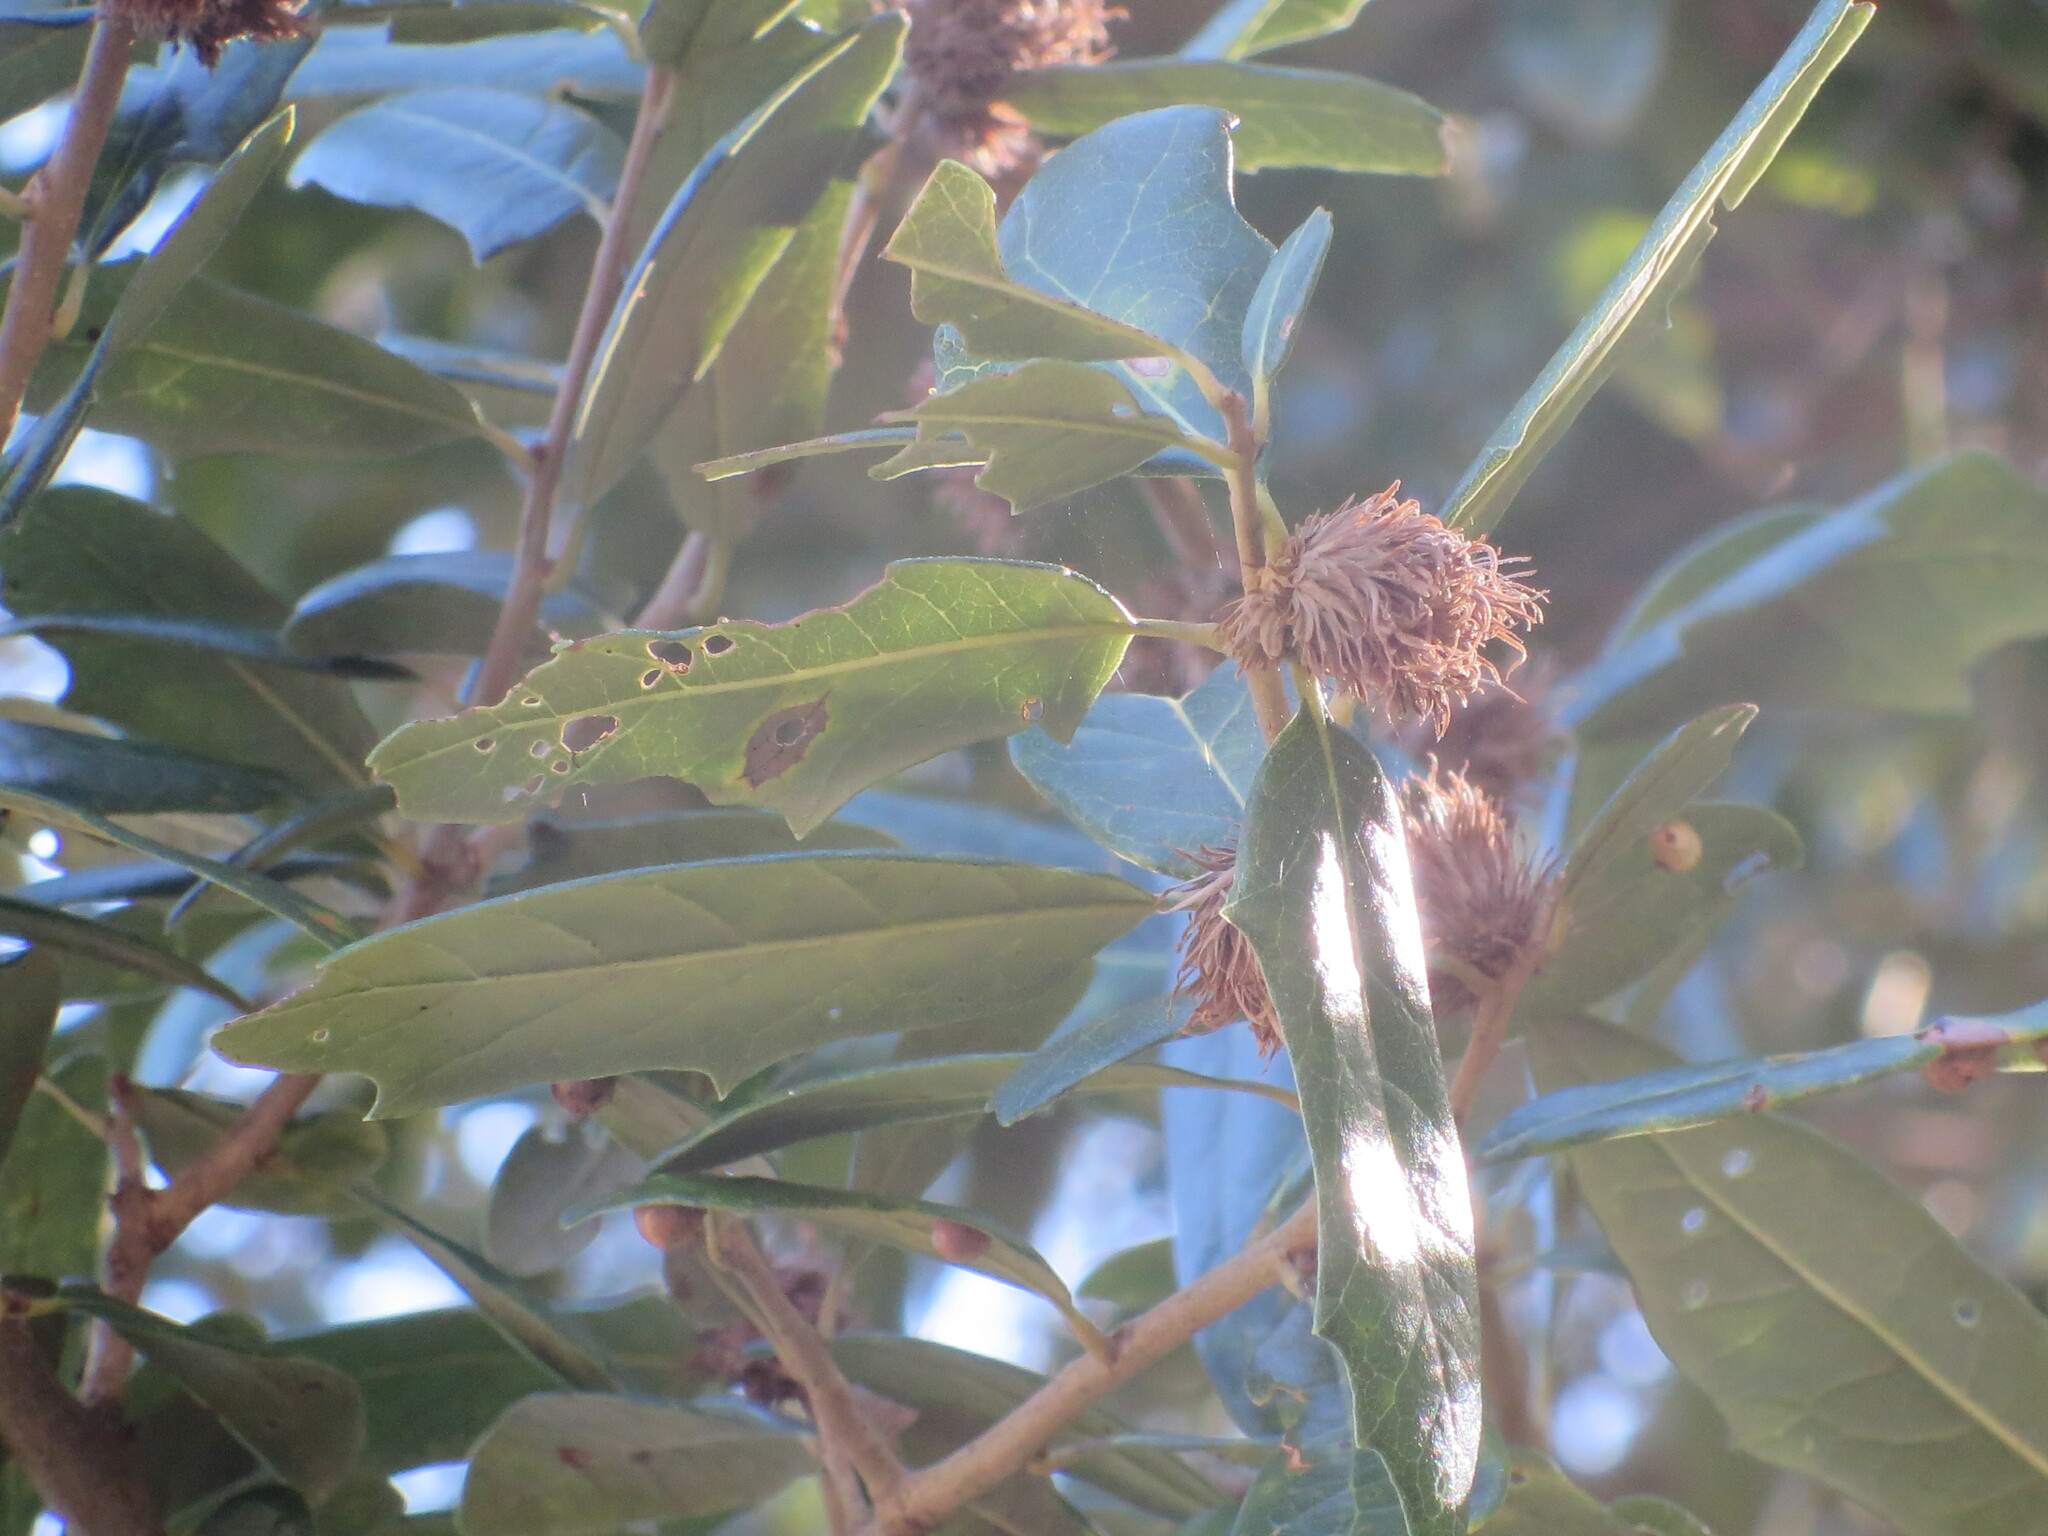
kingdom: Animalia
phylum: Arthropoda
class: Insecta
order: Hymenoptera
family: Cynipidae
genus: Andricus
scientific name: Andricus quercusfoliatus
